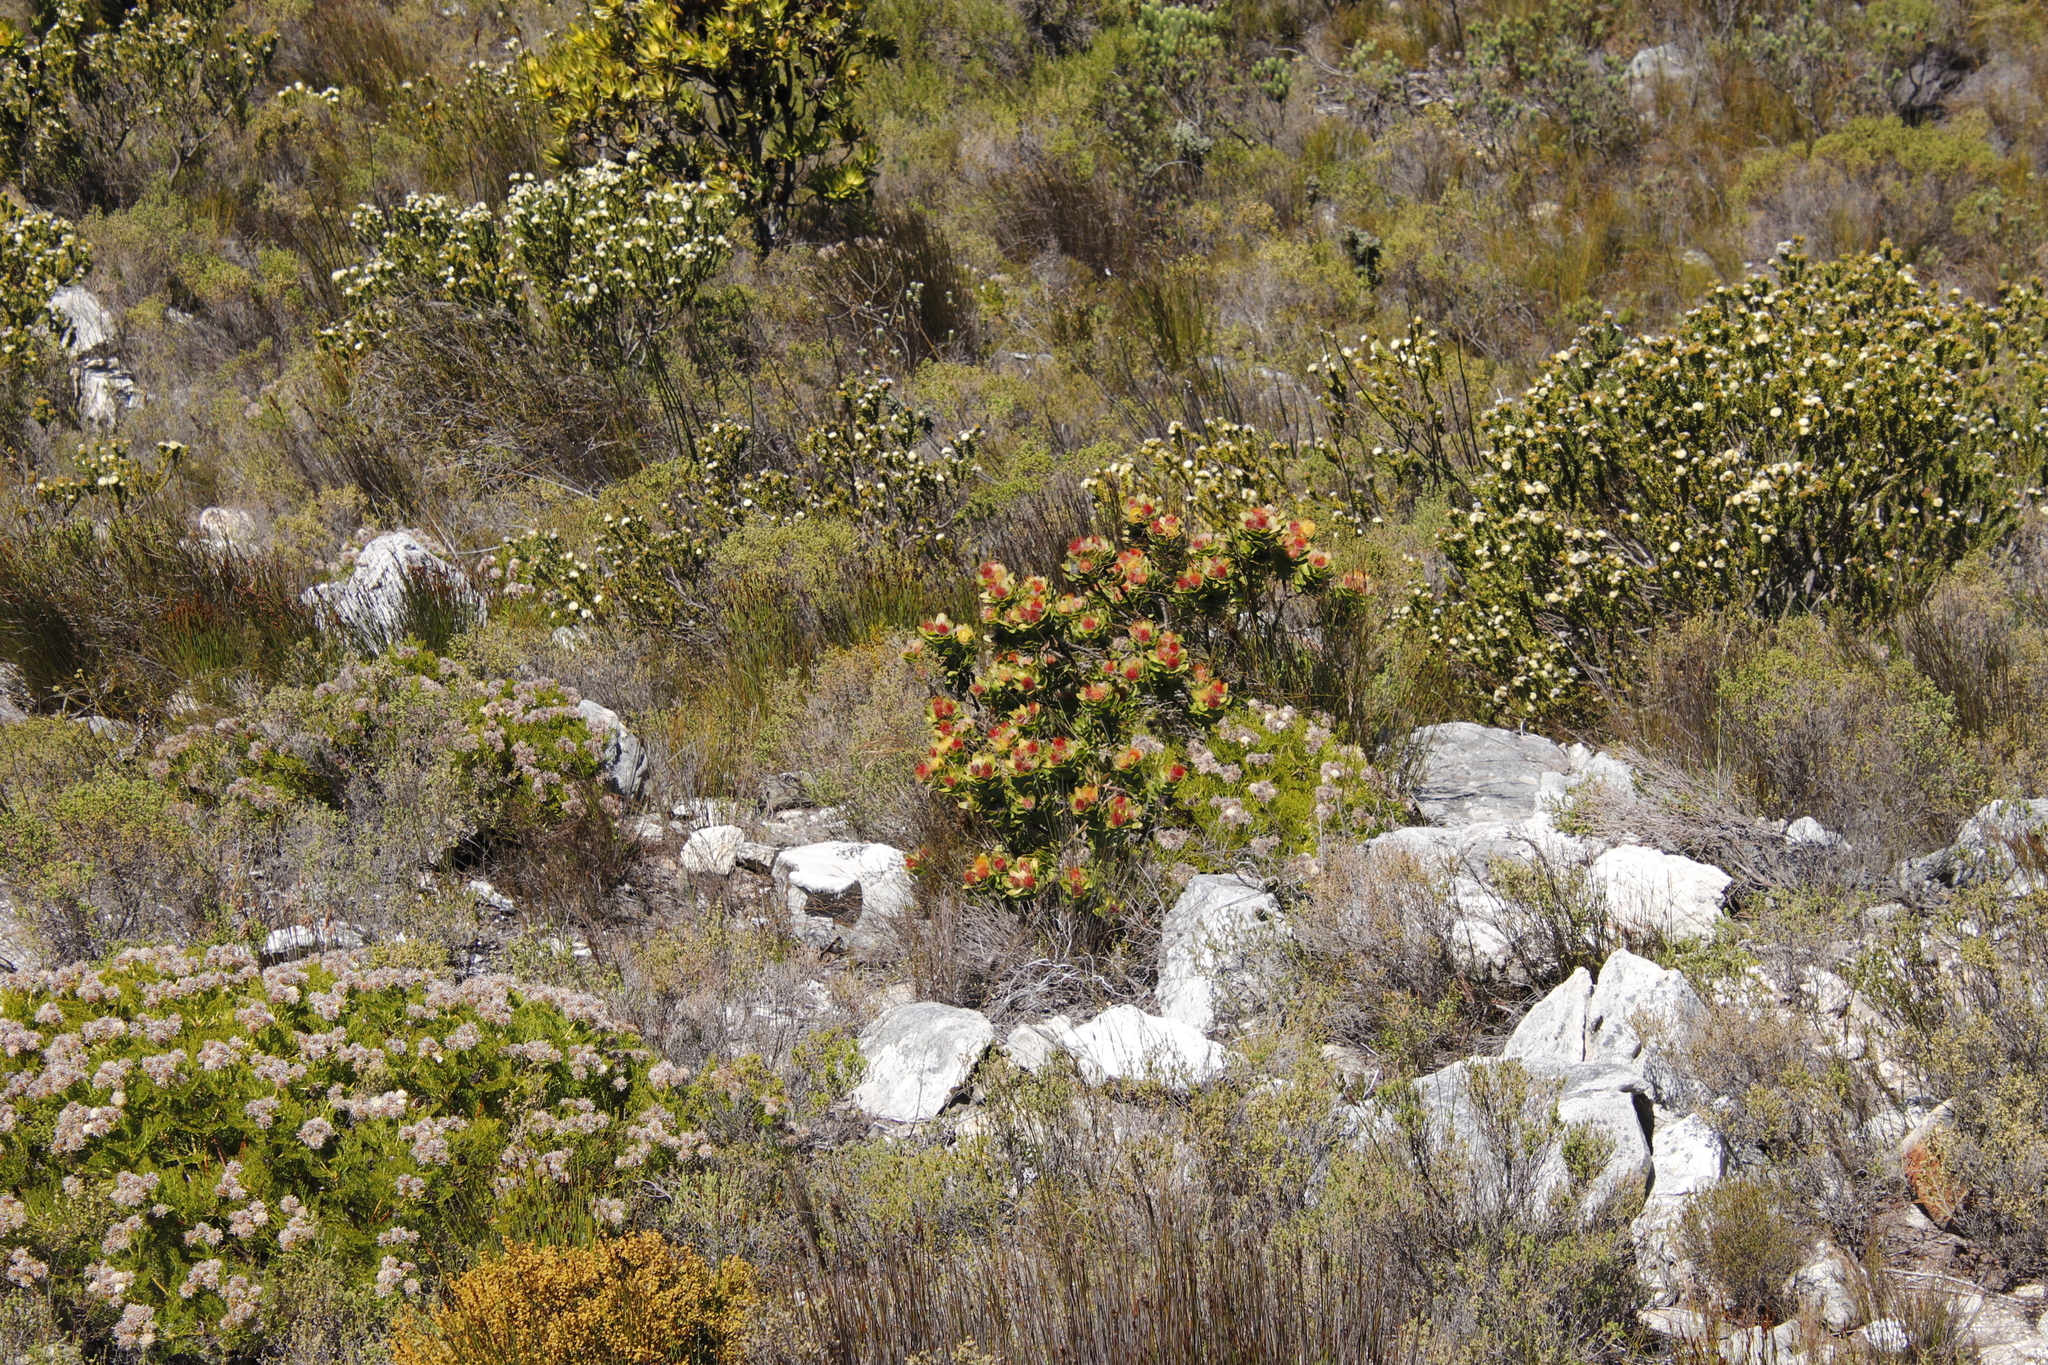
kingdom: Plantae
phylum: Tracheophyta
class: Magnoliopsida
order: Proteales
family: Proteaceae
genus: Leucospermum
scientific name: Leucospermum oleifolium
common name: Matches
